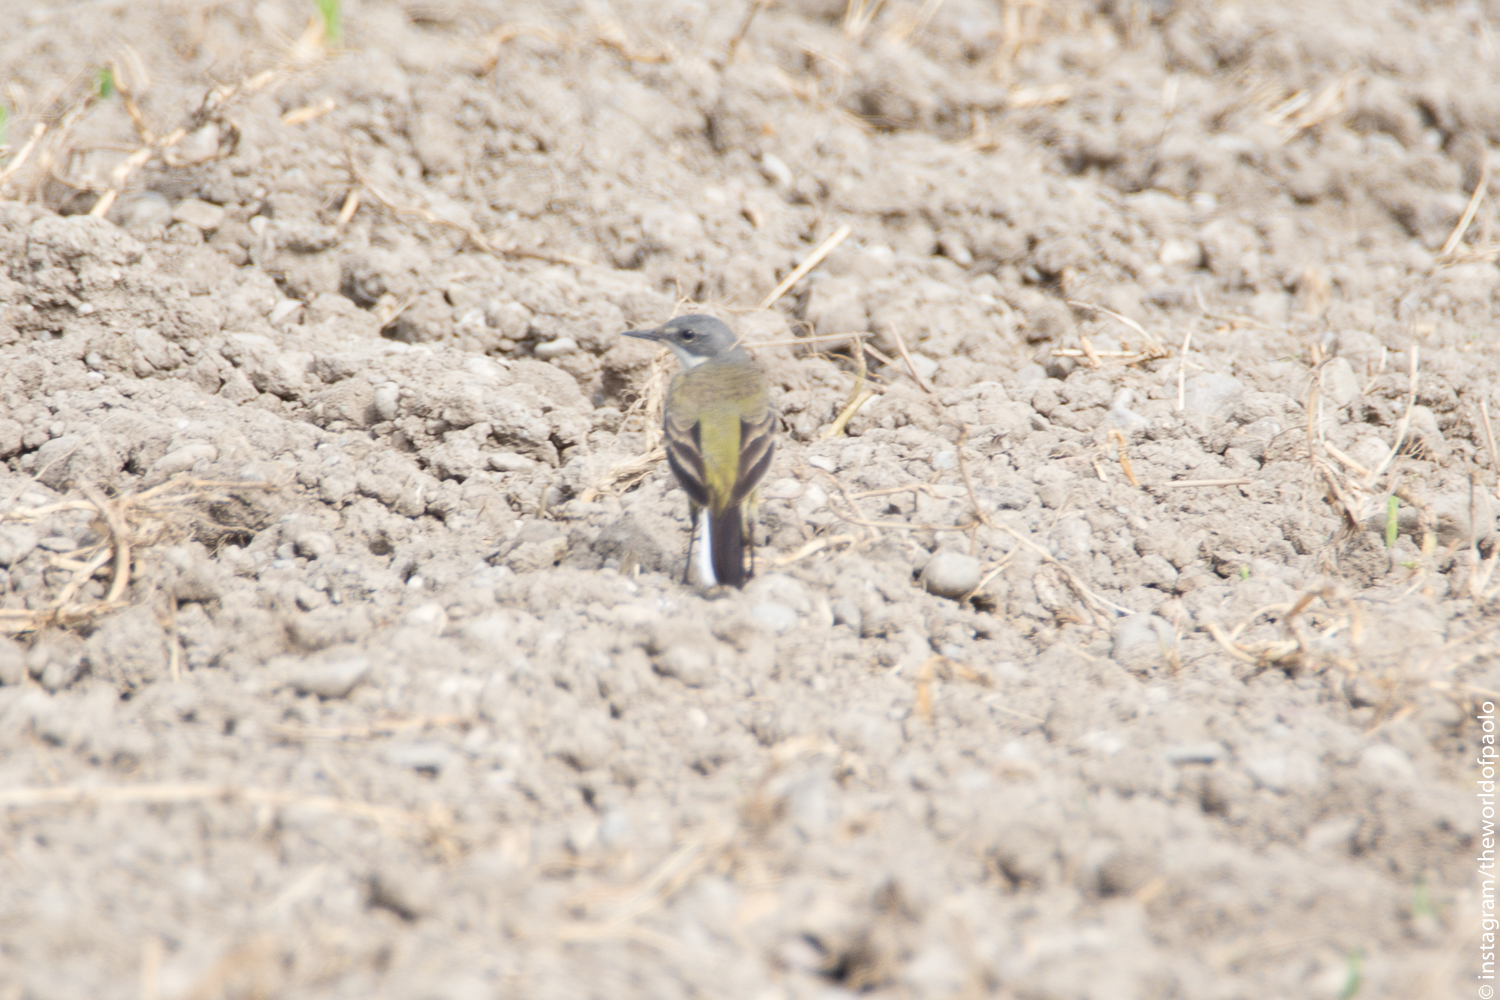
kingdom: Animalia
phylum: Chordata
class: Aves
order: Passeriformes
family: Motacillidae
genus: Motacilla
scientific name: Motacilla flava
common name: Western yellow wagtail
